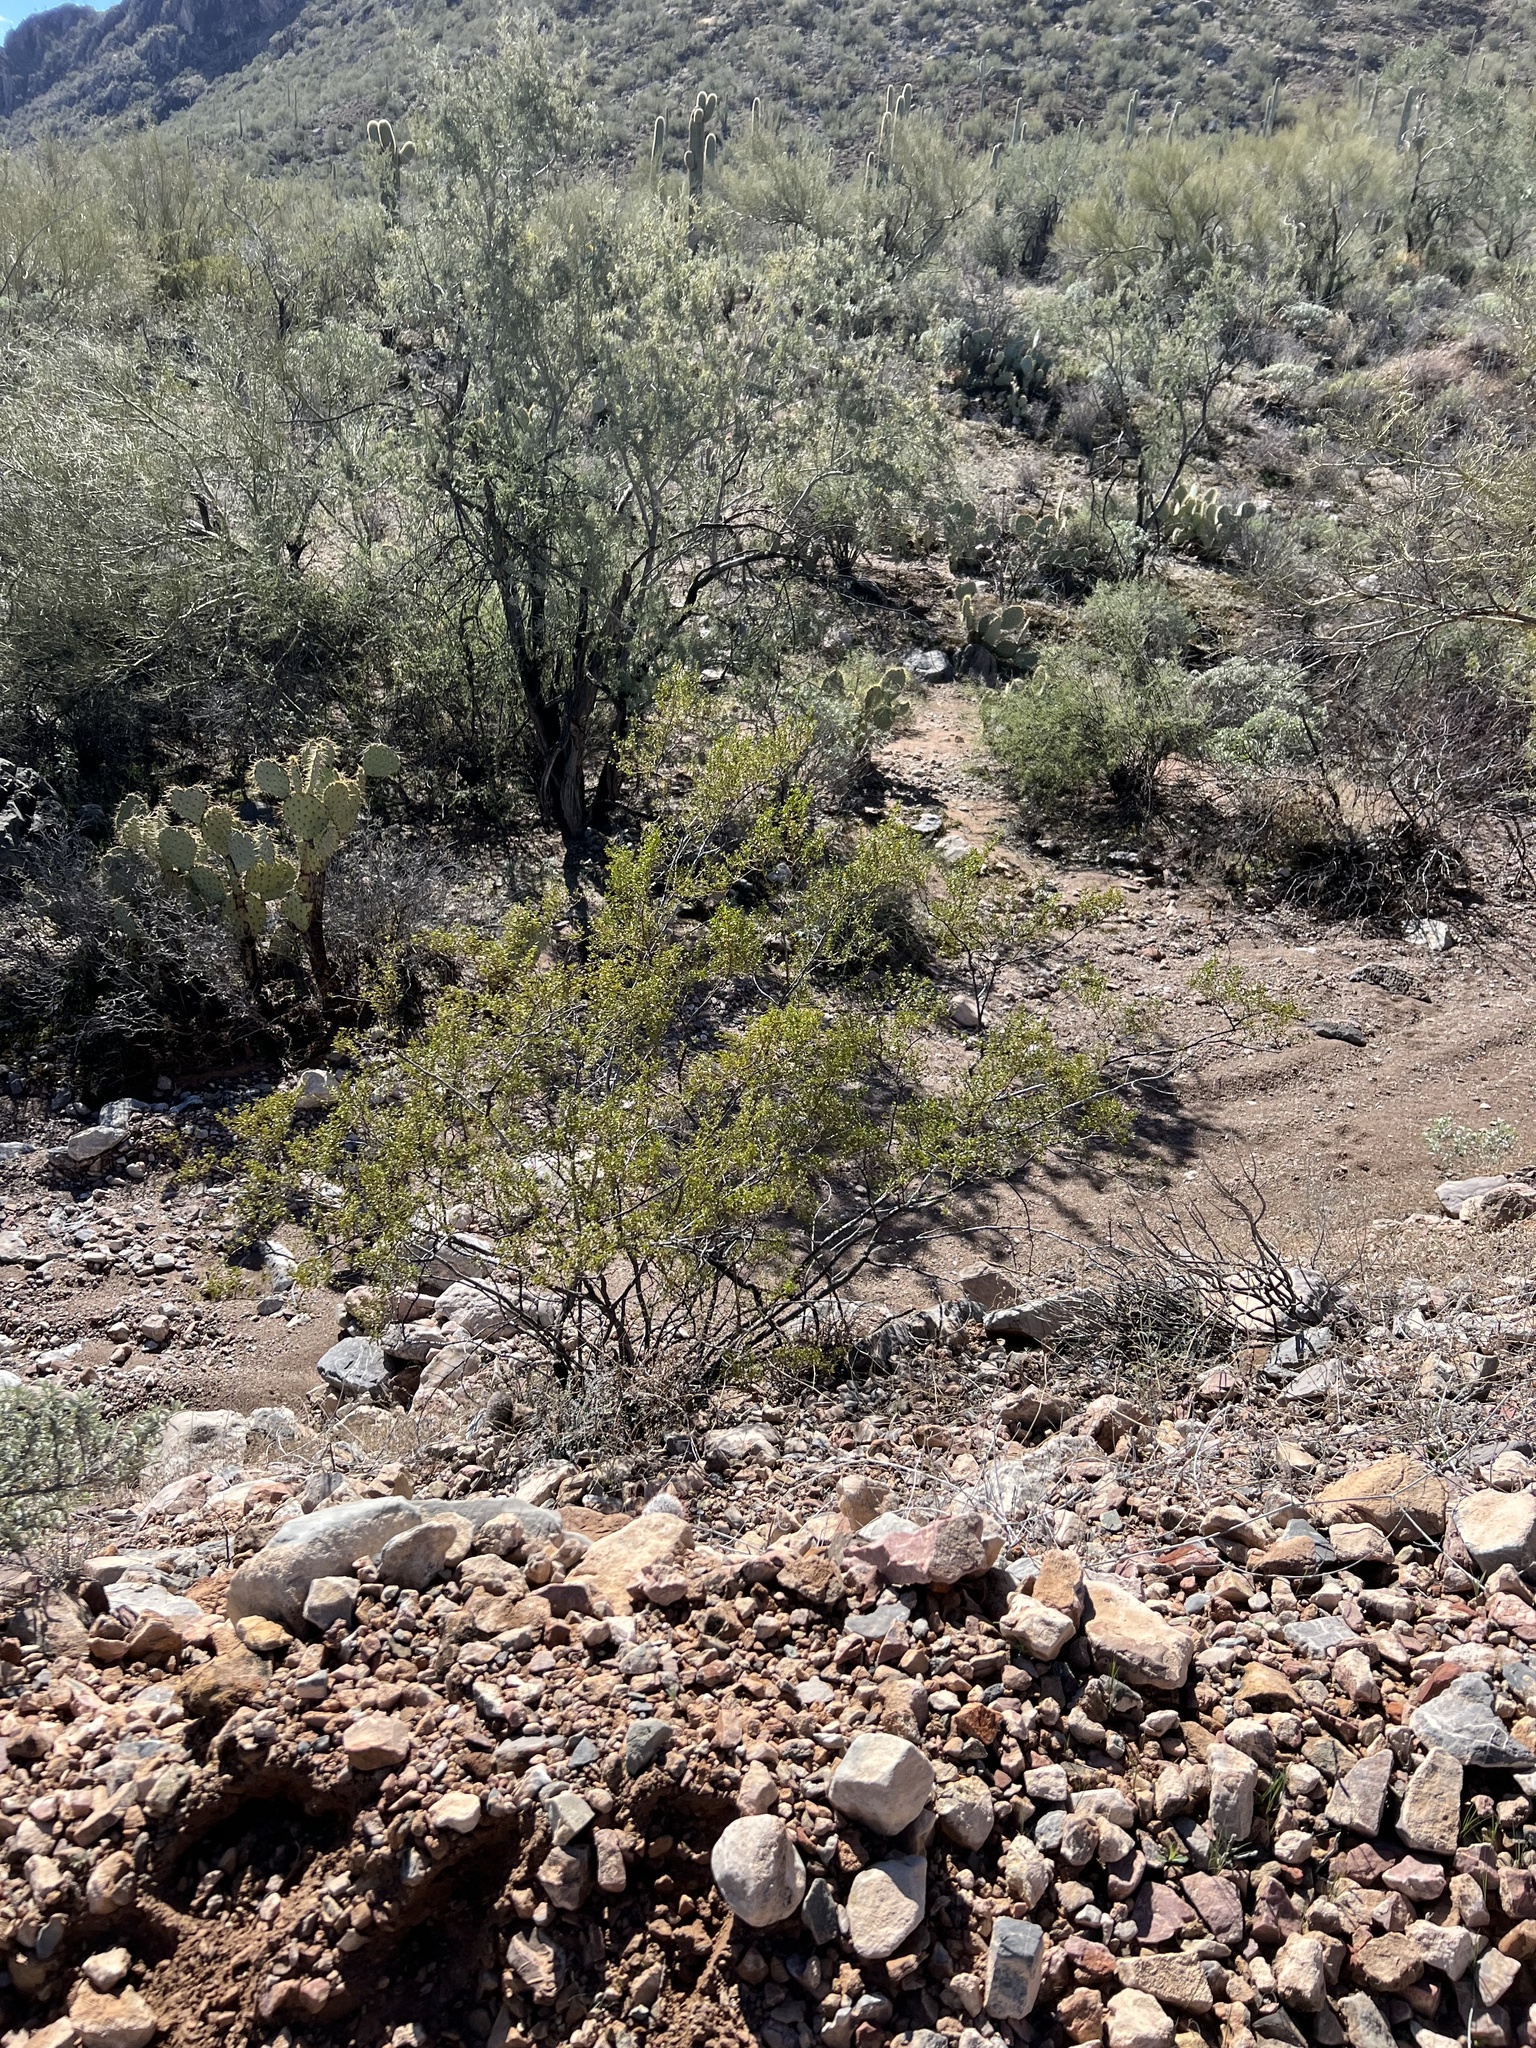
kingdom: Plantae
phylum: Tracheophyta
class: Magnoliopsida
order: Zygophyllales
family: Zygophyllaceae
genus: Larrea
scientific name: Larrea tridentata
